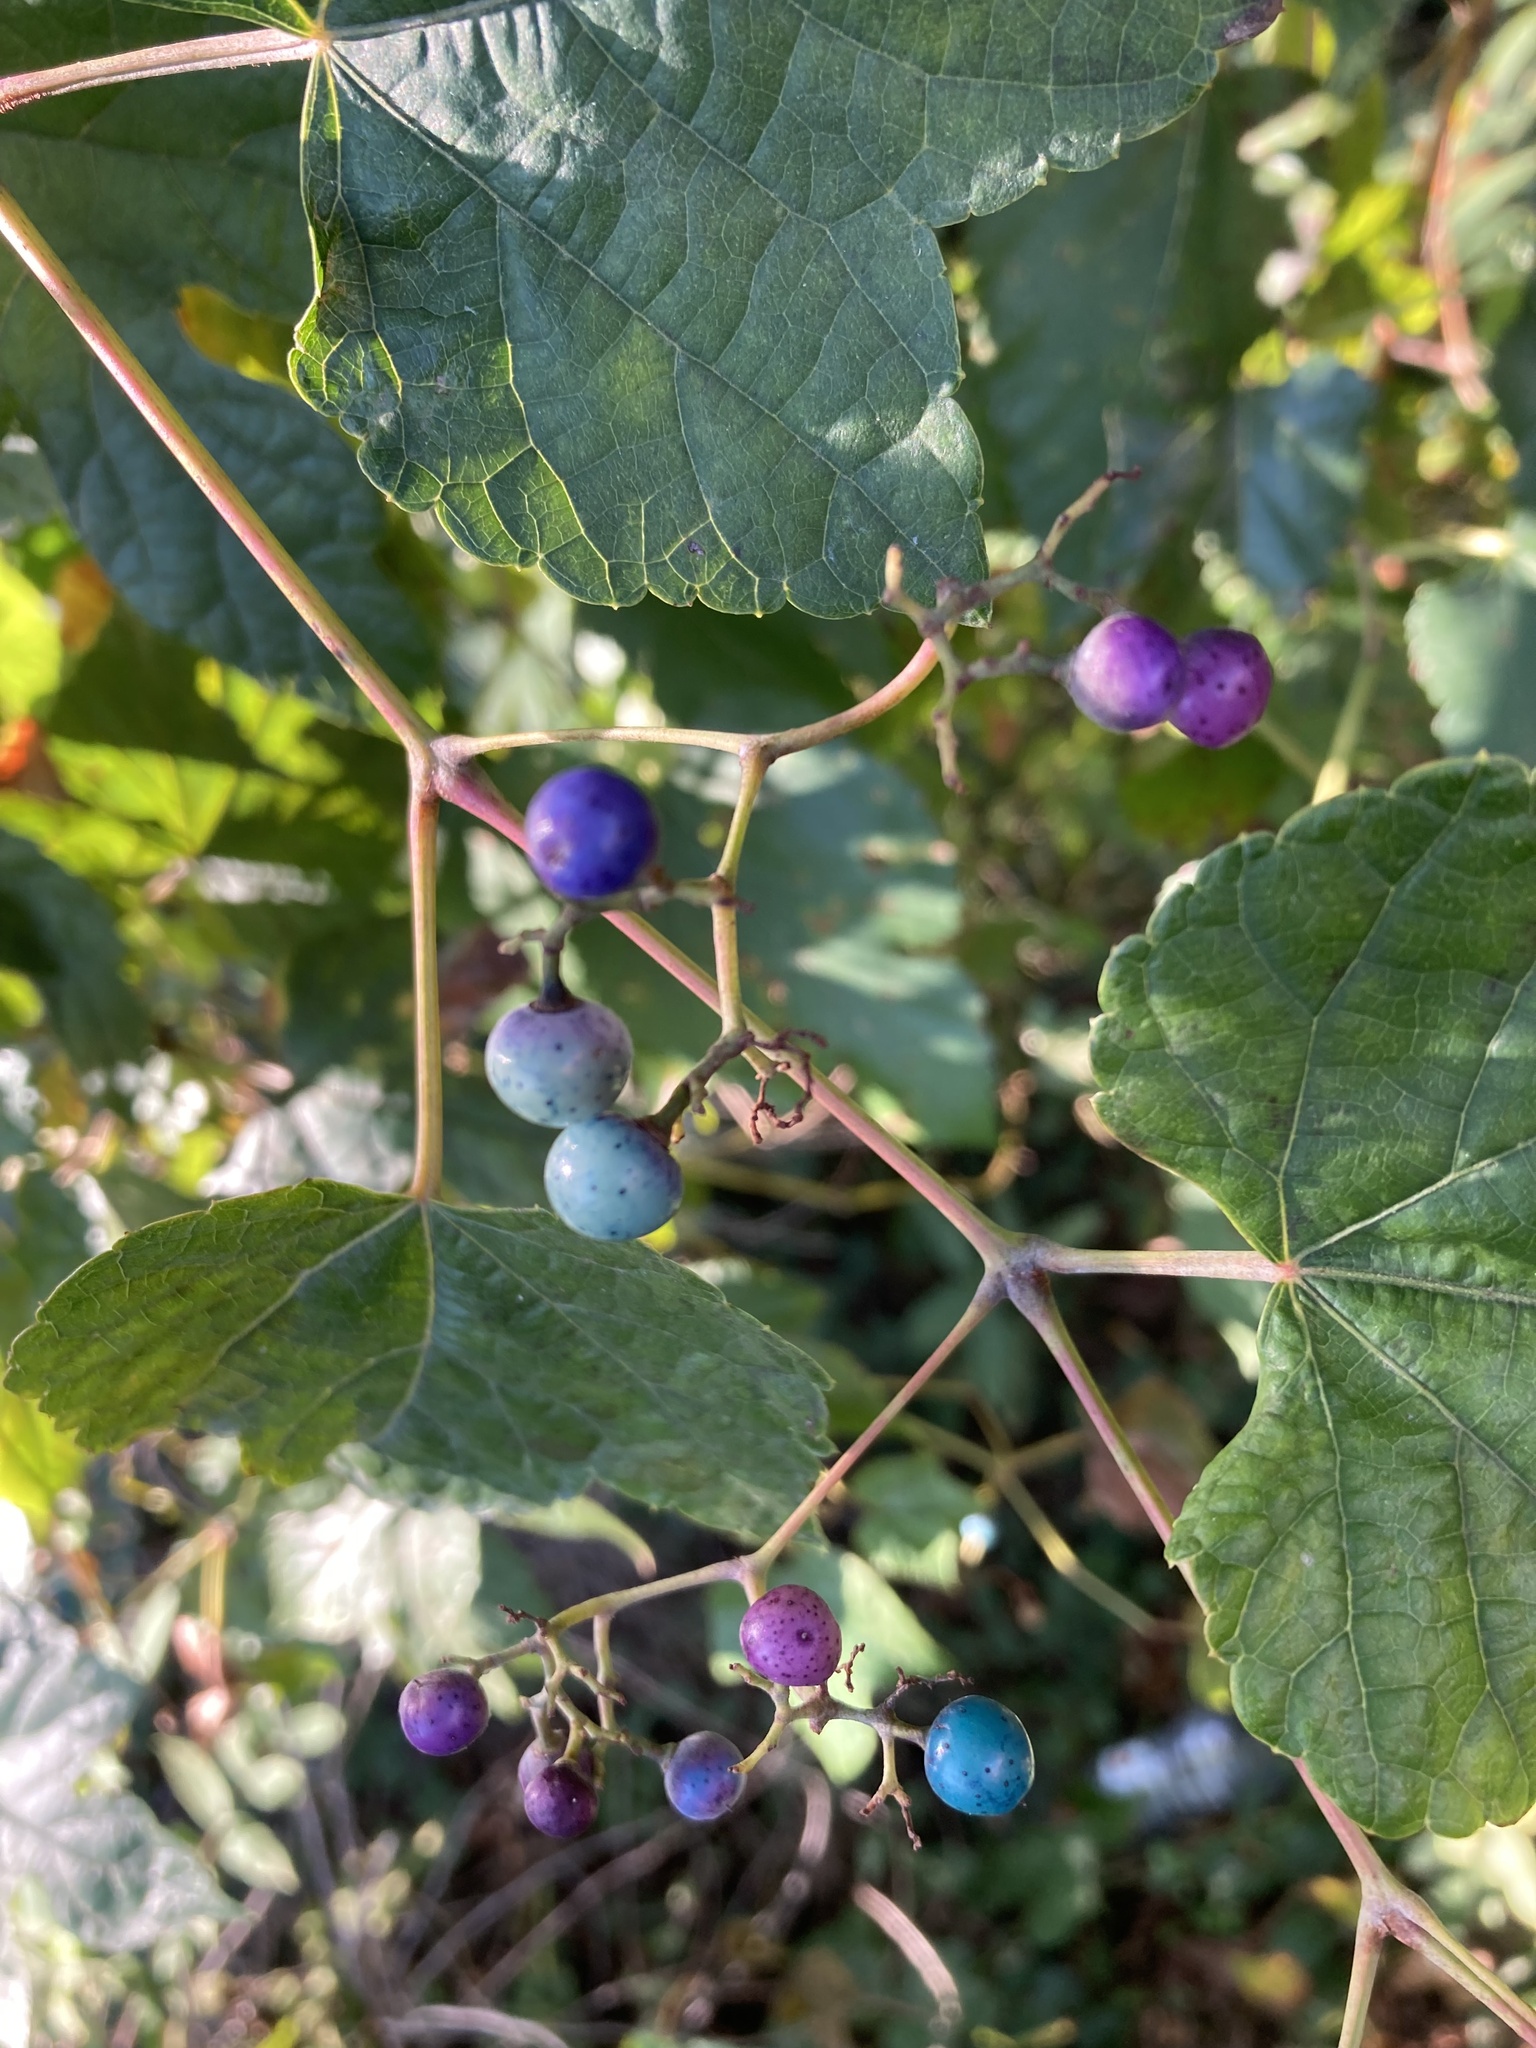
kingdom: Plantae
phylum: Tracheophyta
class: Magnoliopsida
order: Vitales
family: Vitaceae
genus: Ampelopsis
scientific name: Ampelopsis glandulosa
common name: Amur peppervine
